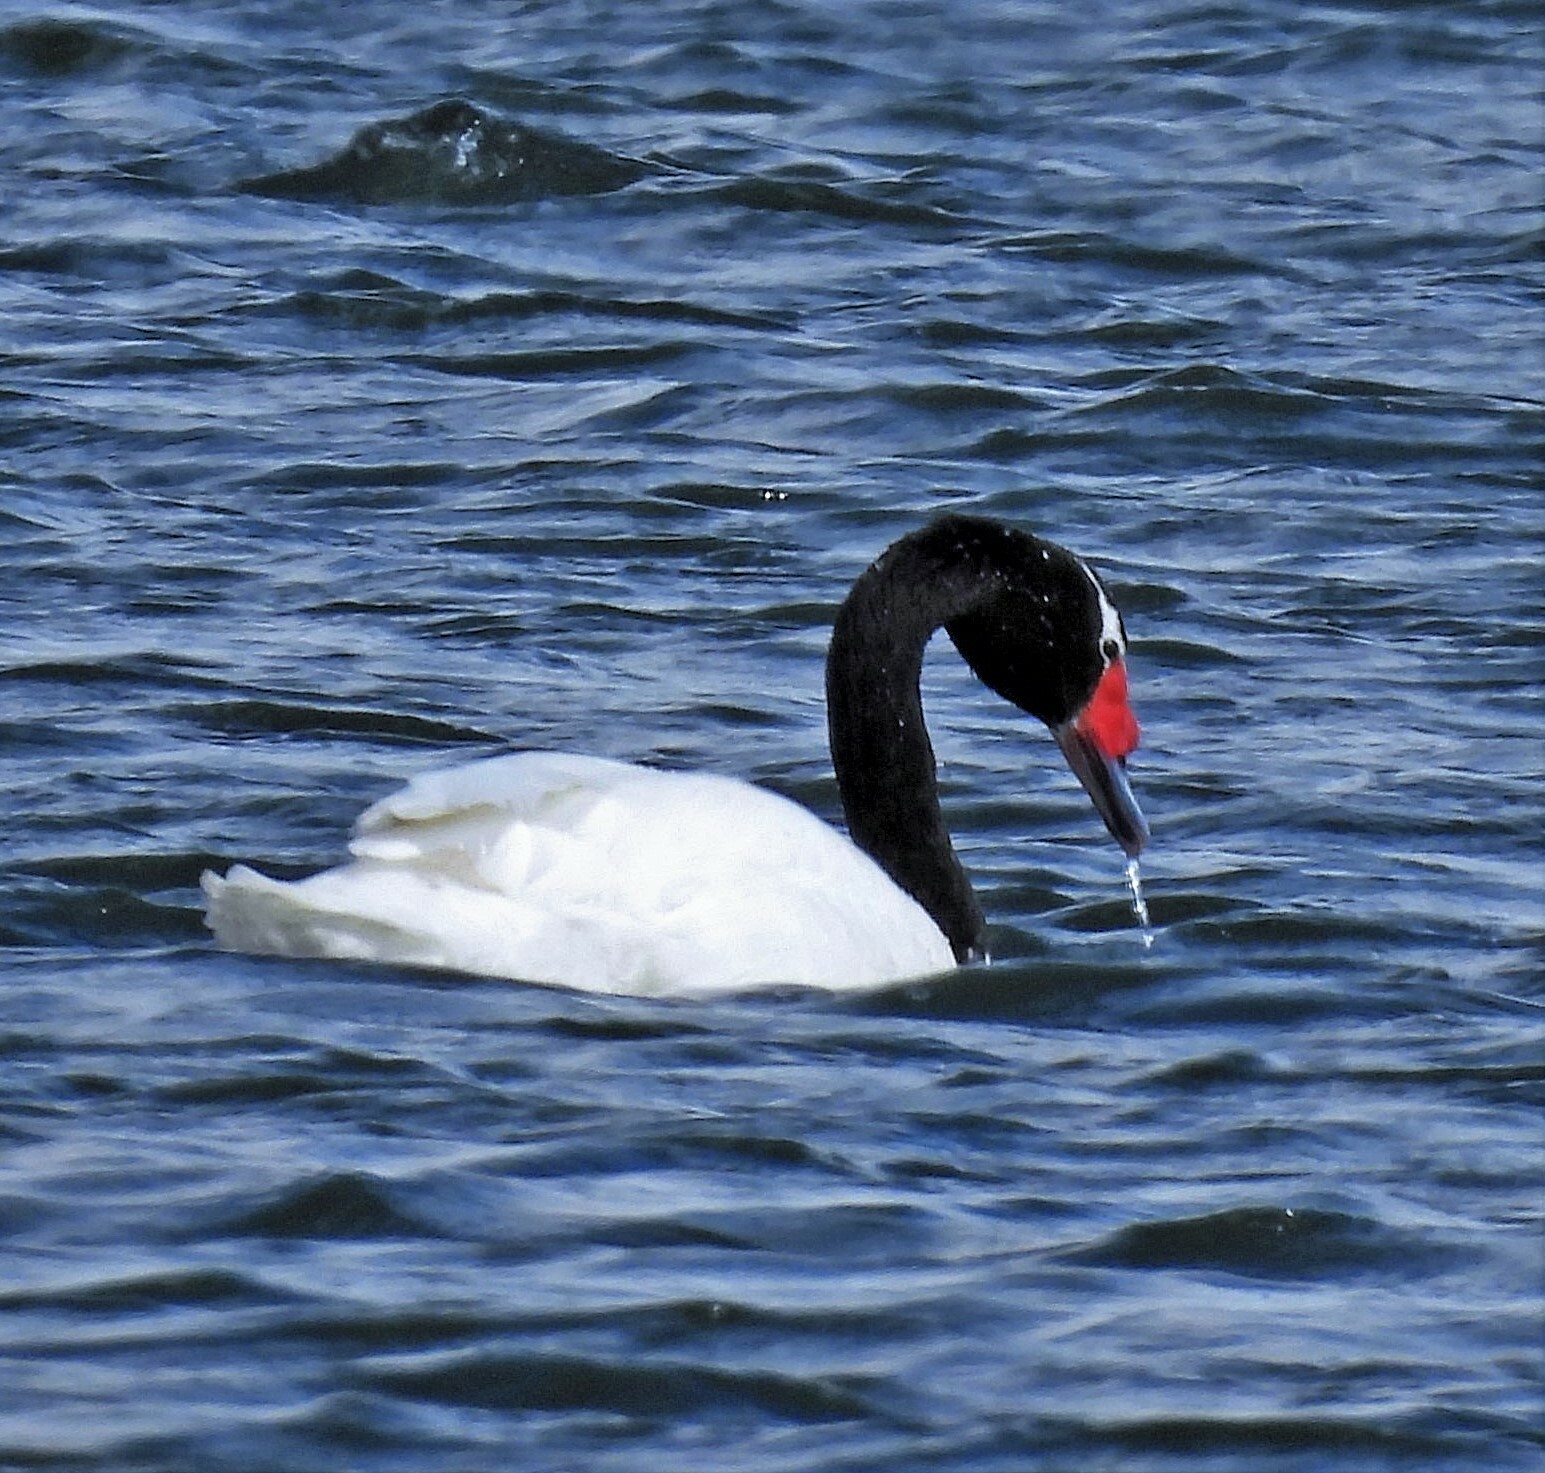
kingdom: Animalia
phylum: Chordata
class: Aves
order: Anseriformes
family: Anatidae
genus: Cygnus
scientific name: Cygnus melancoryphus
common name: Black-necked swan
